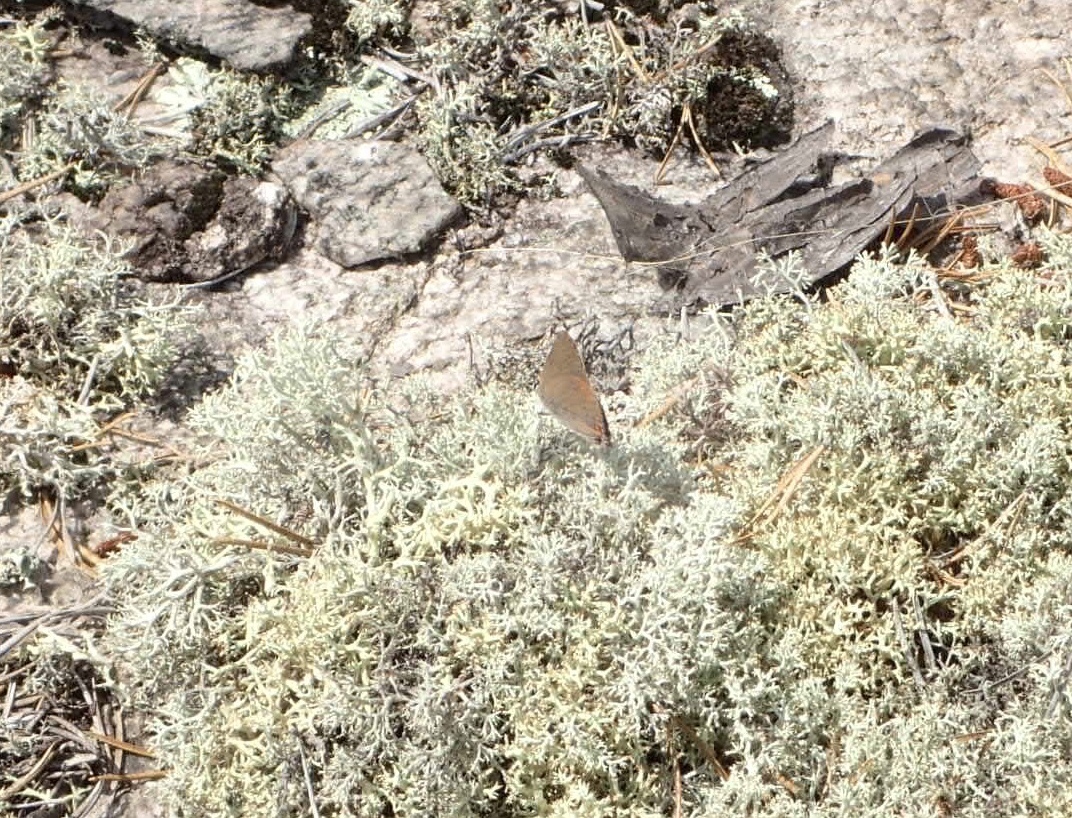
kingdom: Animalia
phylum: Arthropoda
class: Insecta
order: Lepidoptera
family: Lycaenidae
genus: Harkenclenus
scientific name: Harkenclenus titus
